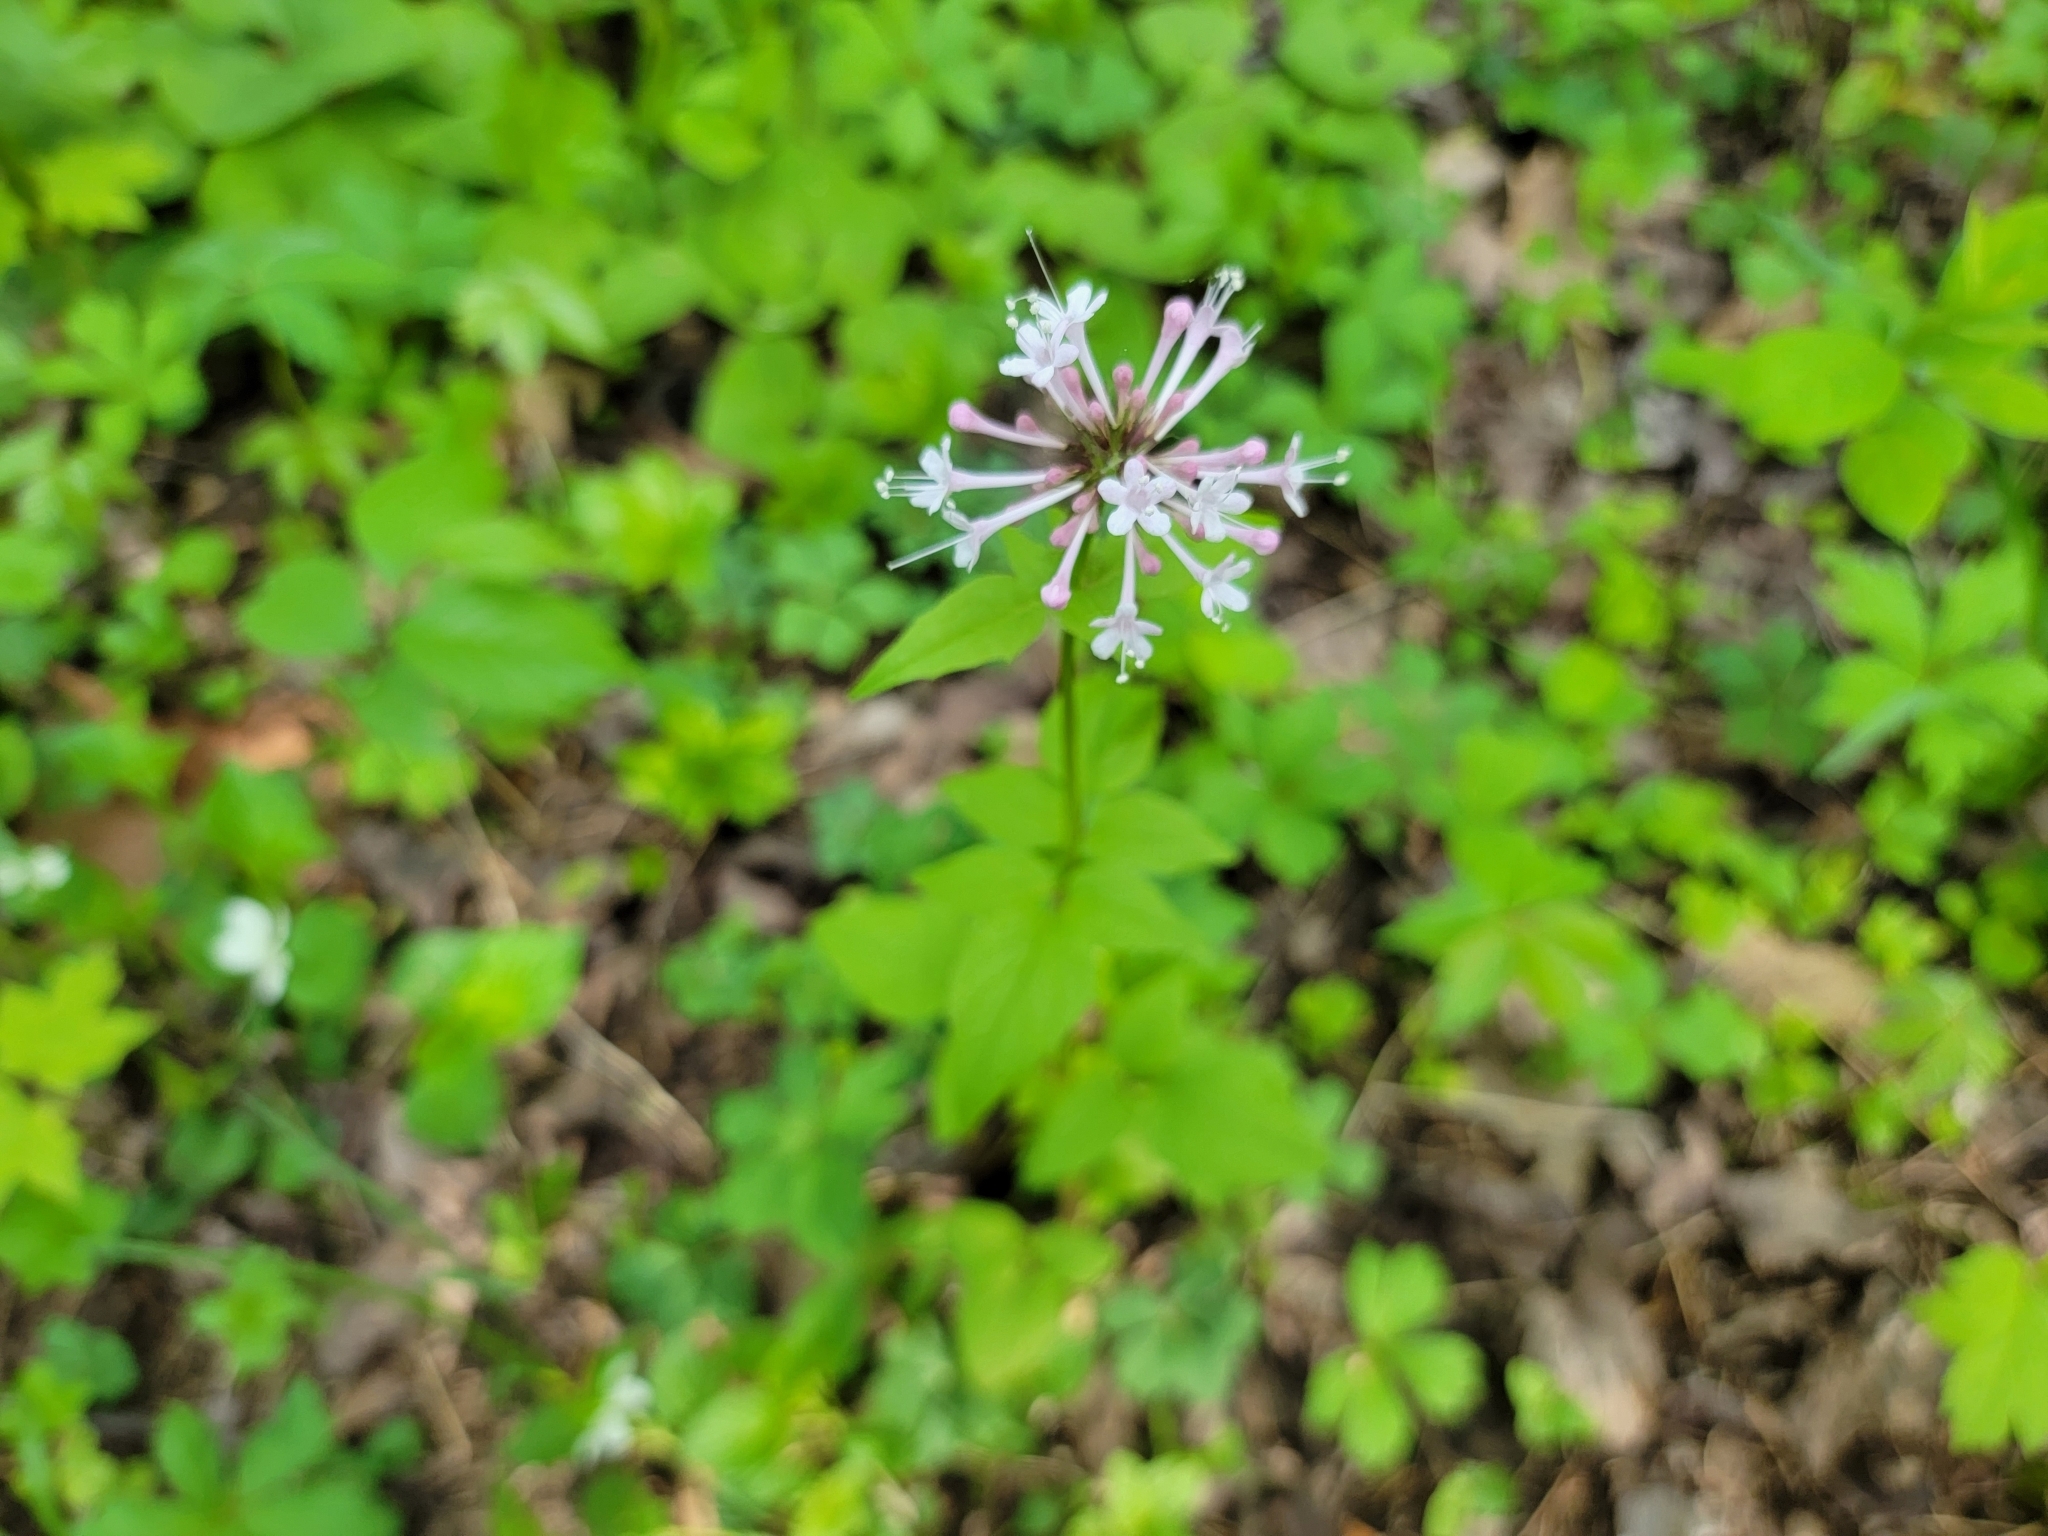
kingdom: Plantae
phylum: Tracheophyta
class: Magnoliopsida
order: Dipsacales
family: Caprifoliaceae
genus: Valeriana
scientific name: Valeriana pauciflora
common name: Long-tube valeriana
